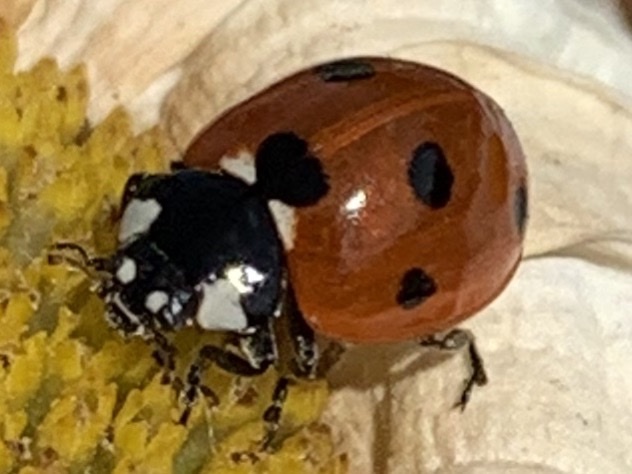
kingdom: Animalia
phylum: Arthropoda
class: Insecta
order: Coleoptera
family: Coccinellidae
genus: Coccinella
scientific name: Coccinella septempunctata
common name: Sevenspotted lady beetle
